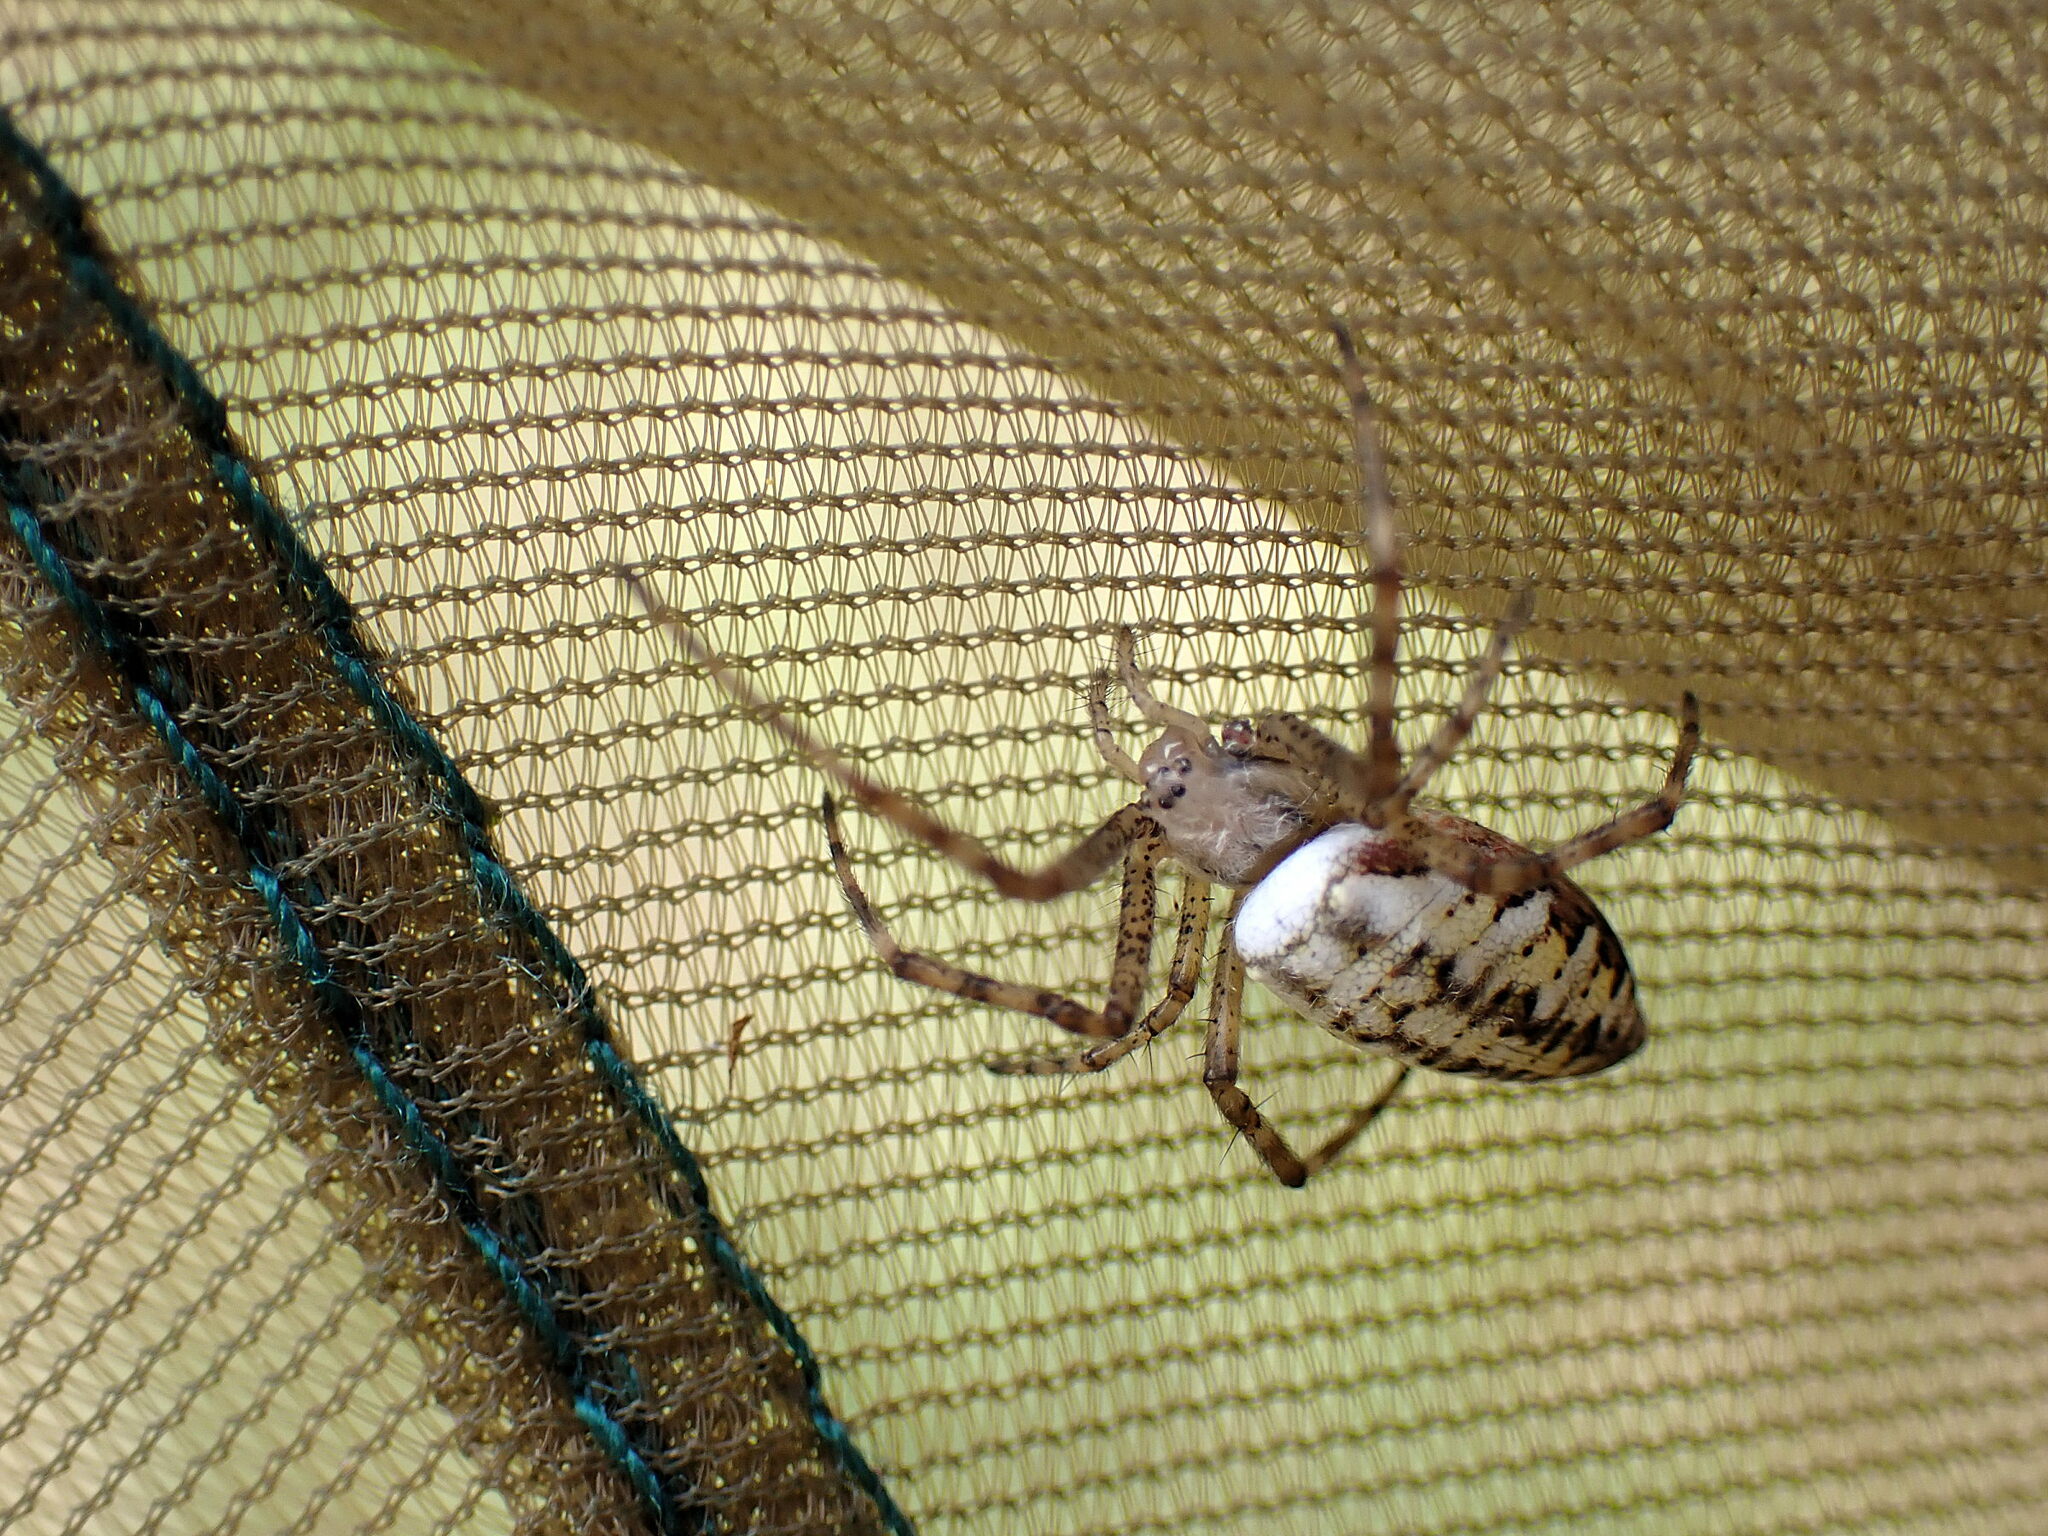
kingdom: Animalia
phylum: Arthropoda
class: Arachnida
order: Araneae
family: Araneidae
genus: Argiope
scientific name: Argiope bruennichi
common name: Wasp spider
